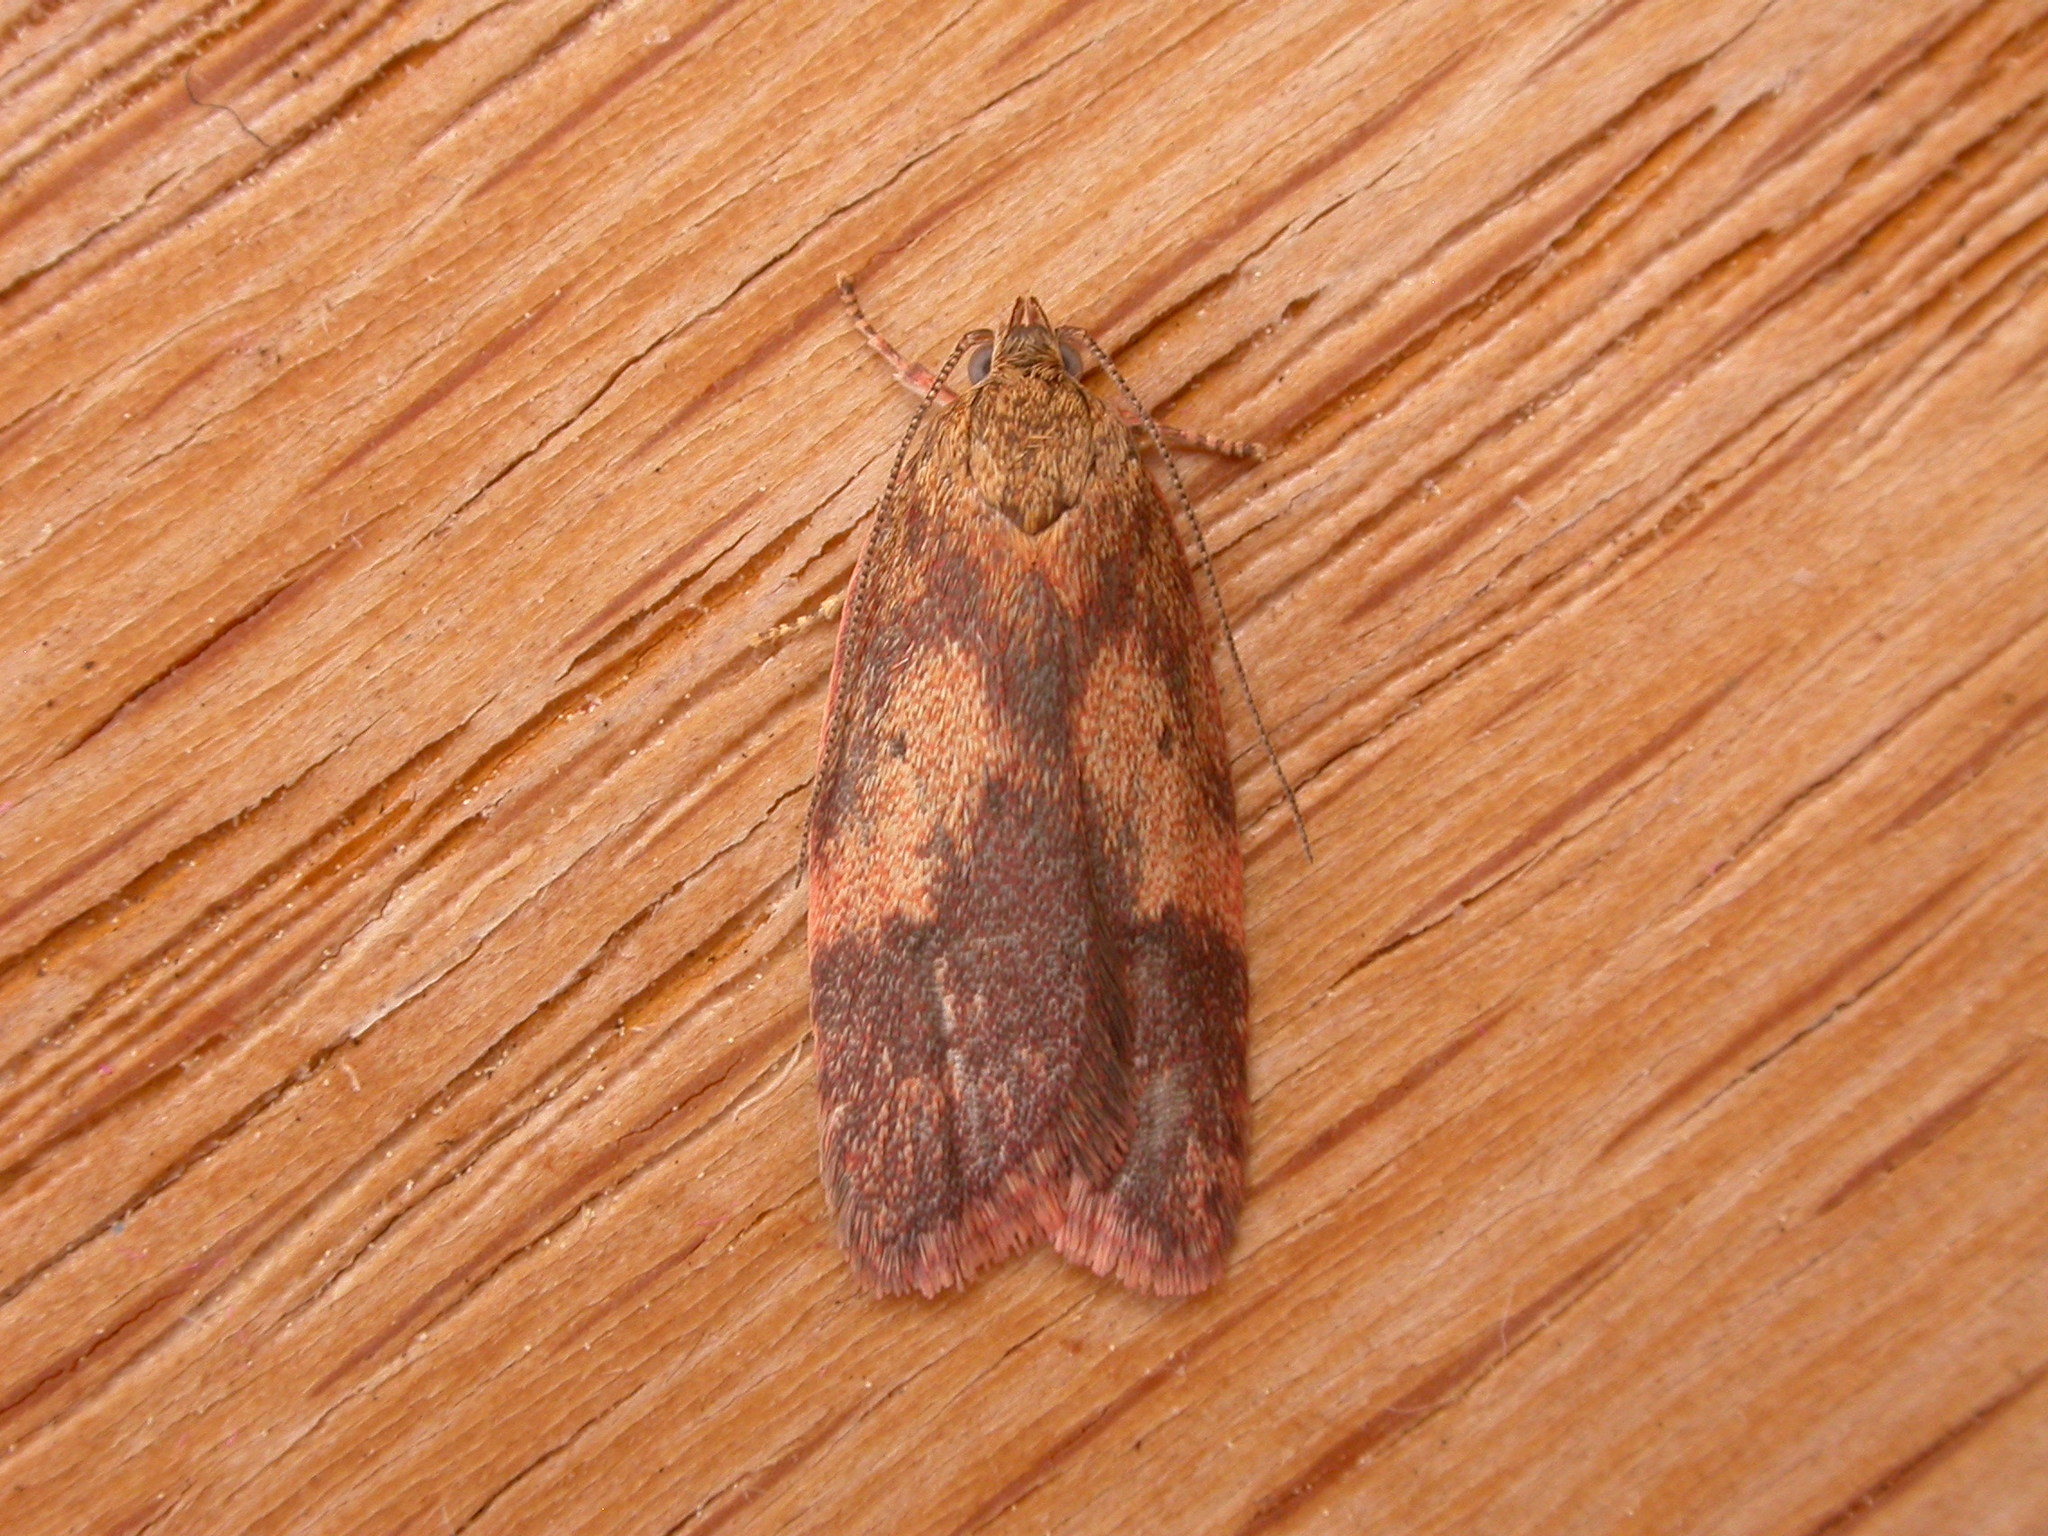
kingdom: Animalia
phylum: Arthropoda
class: Insecta
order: Lepidoptera
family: Oecophoridae
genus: Garrha
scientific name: Garrha absumptella
